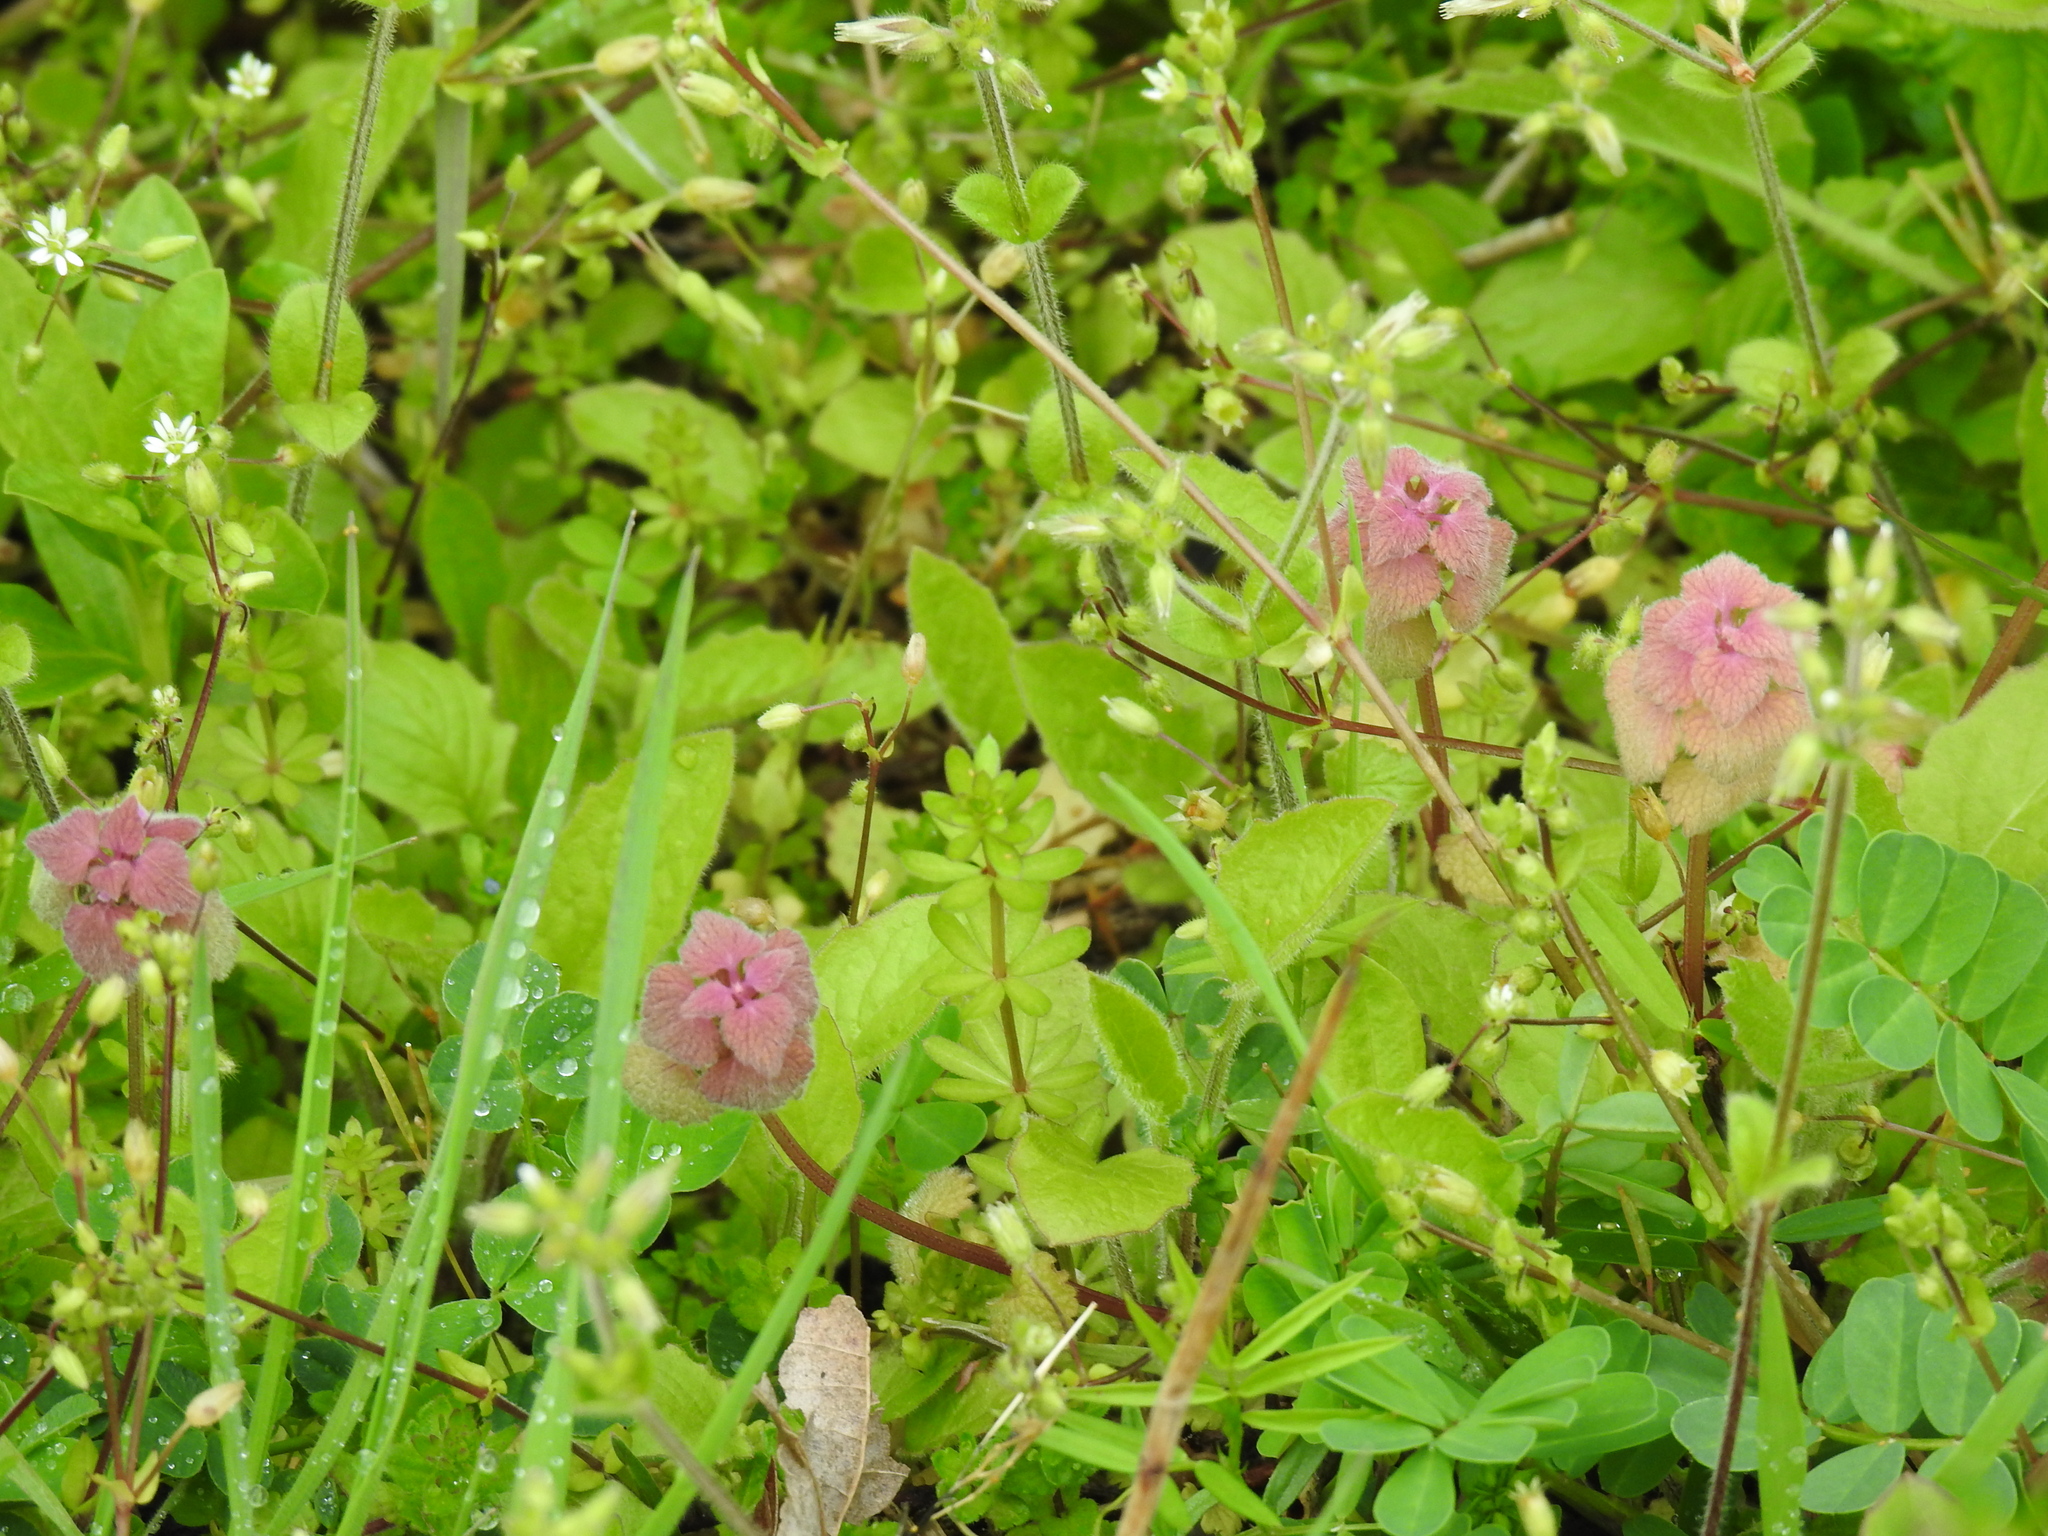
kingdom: Plantae
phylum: Tracheophyta
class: Magnoliopsida
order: Lamiales
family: Lamiaceae
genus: Lamium
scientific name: Lamium purpureum
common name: Red dead-nettle
